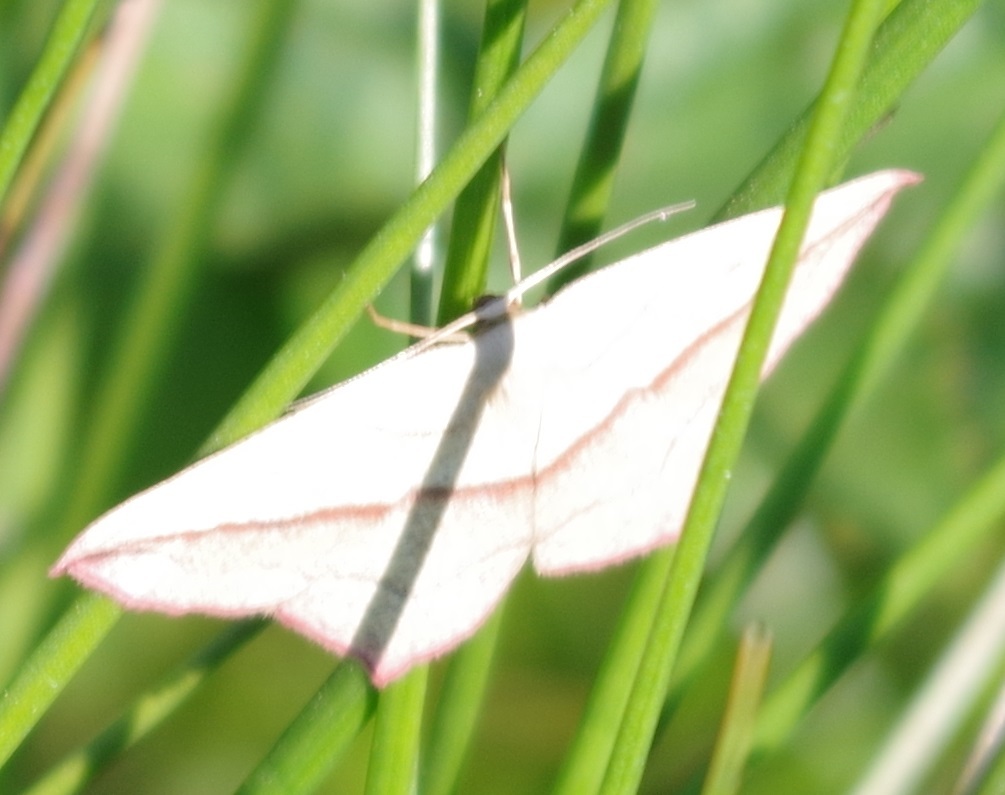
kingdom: Animalia
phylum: Arthropoda
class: Insecta
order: Lepidoptera
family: Geometridae
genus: Timandra
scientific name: Timandra comae
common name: Blood-vein
